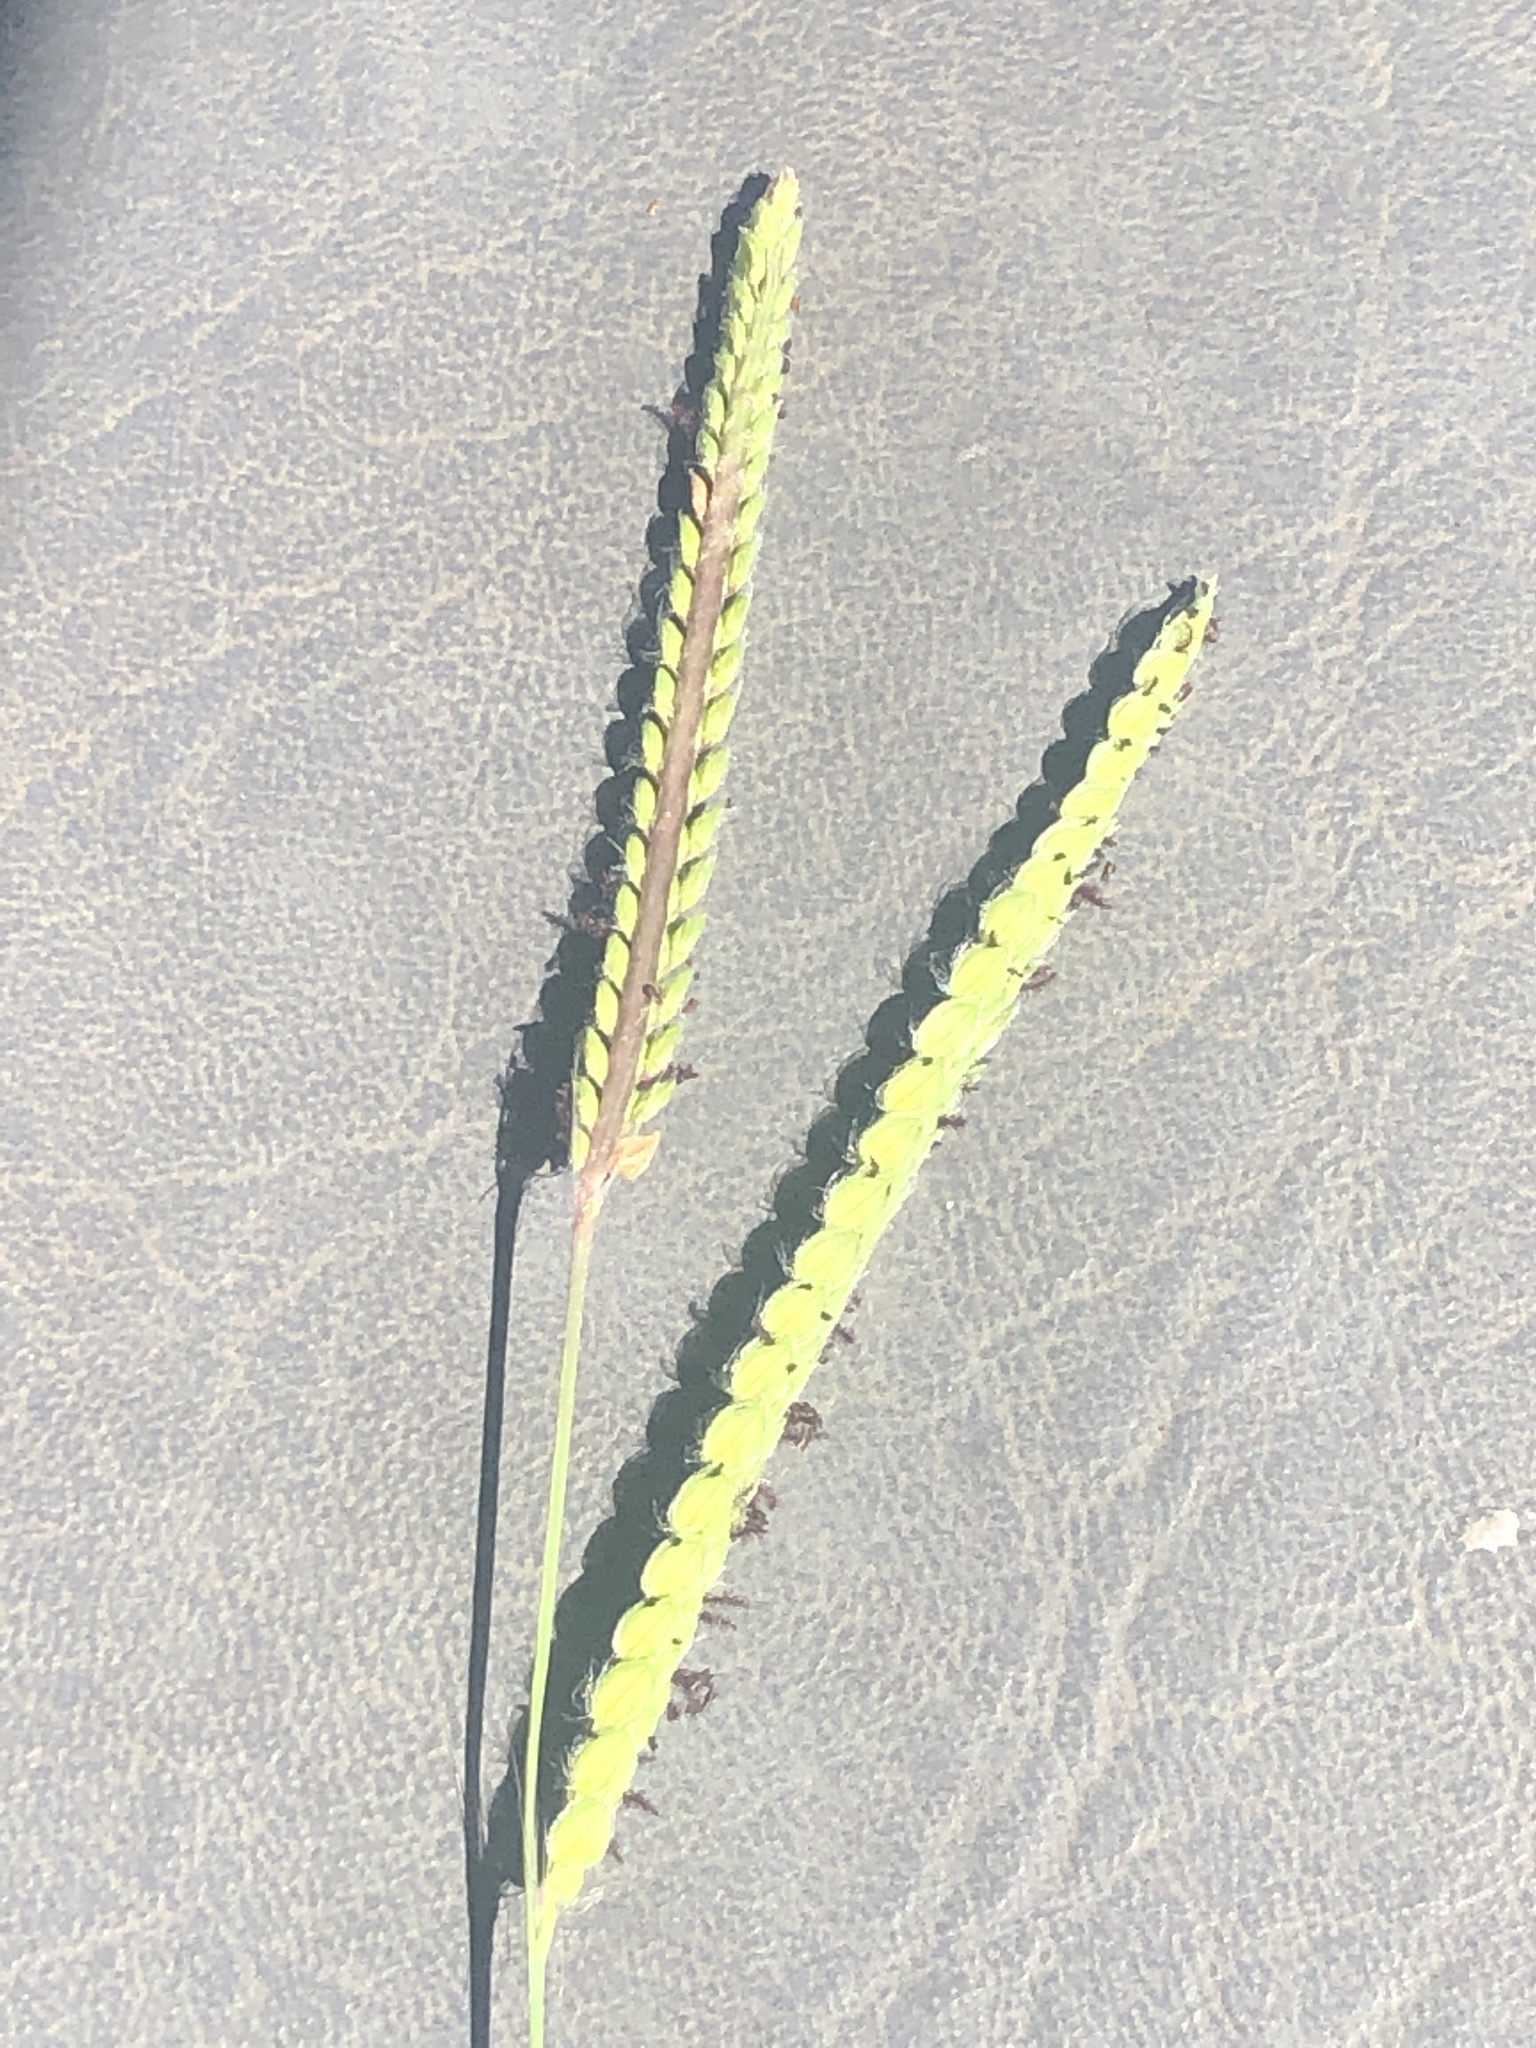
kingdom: Plantae
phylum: Tracheophyta
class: Liliopsida
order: Poales
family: Poaceae
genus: Paspalum
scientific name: Paspalum dilatatum
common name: Dallisgrass
